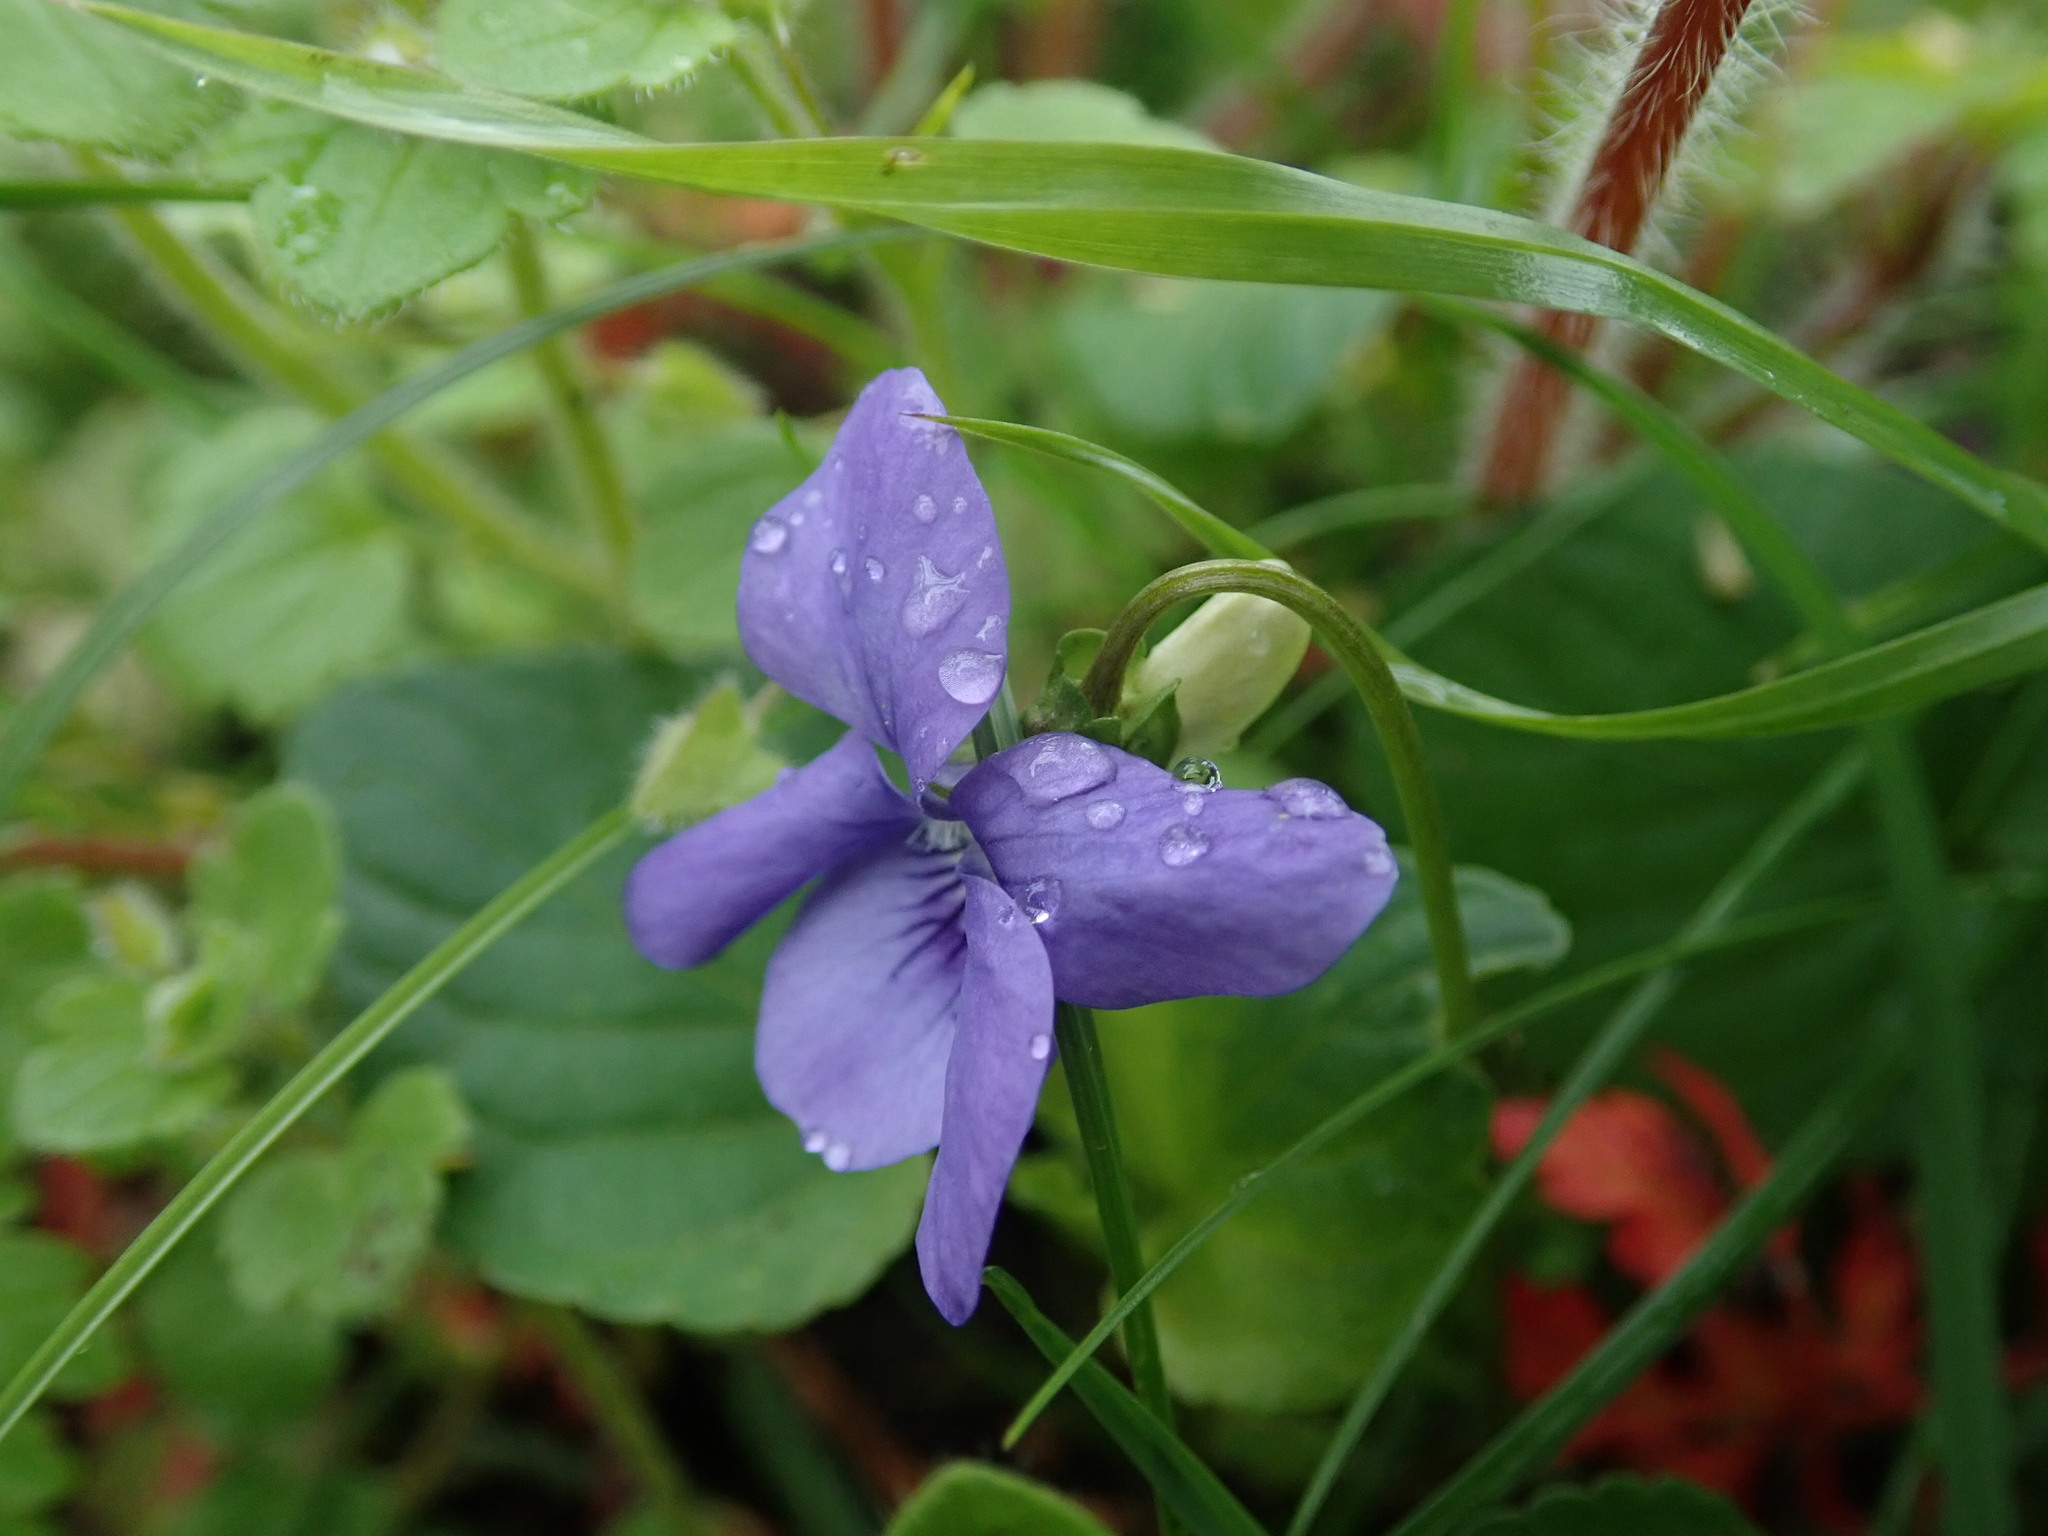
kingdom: Plantae
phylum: Tracheophyta
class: Magnoliopsida
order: Malpighiales
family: Violaceae
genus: Viola
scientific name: Viola riviniana
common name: Common dog-violet
